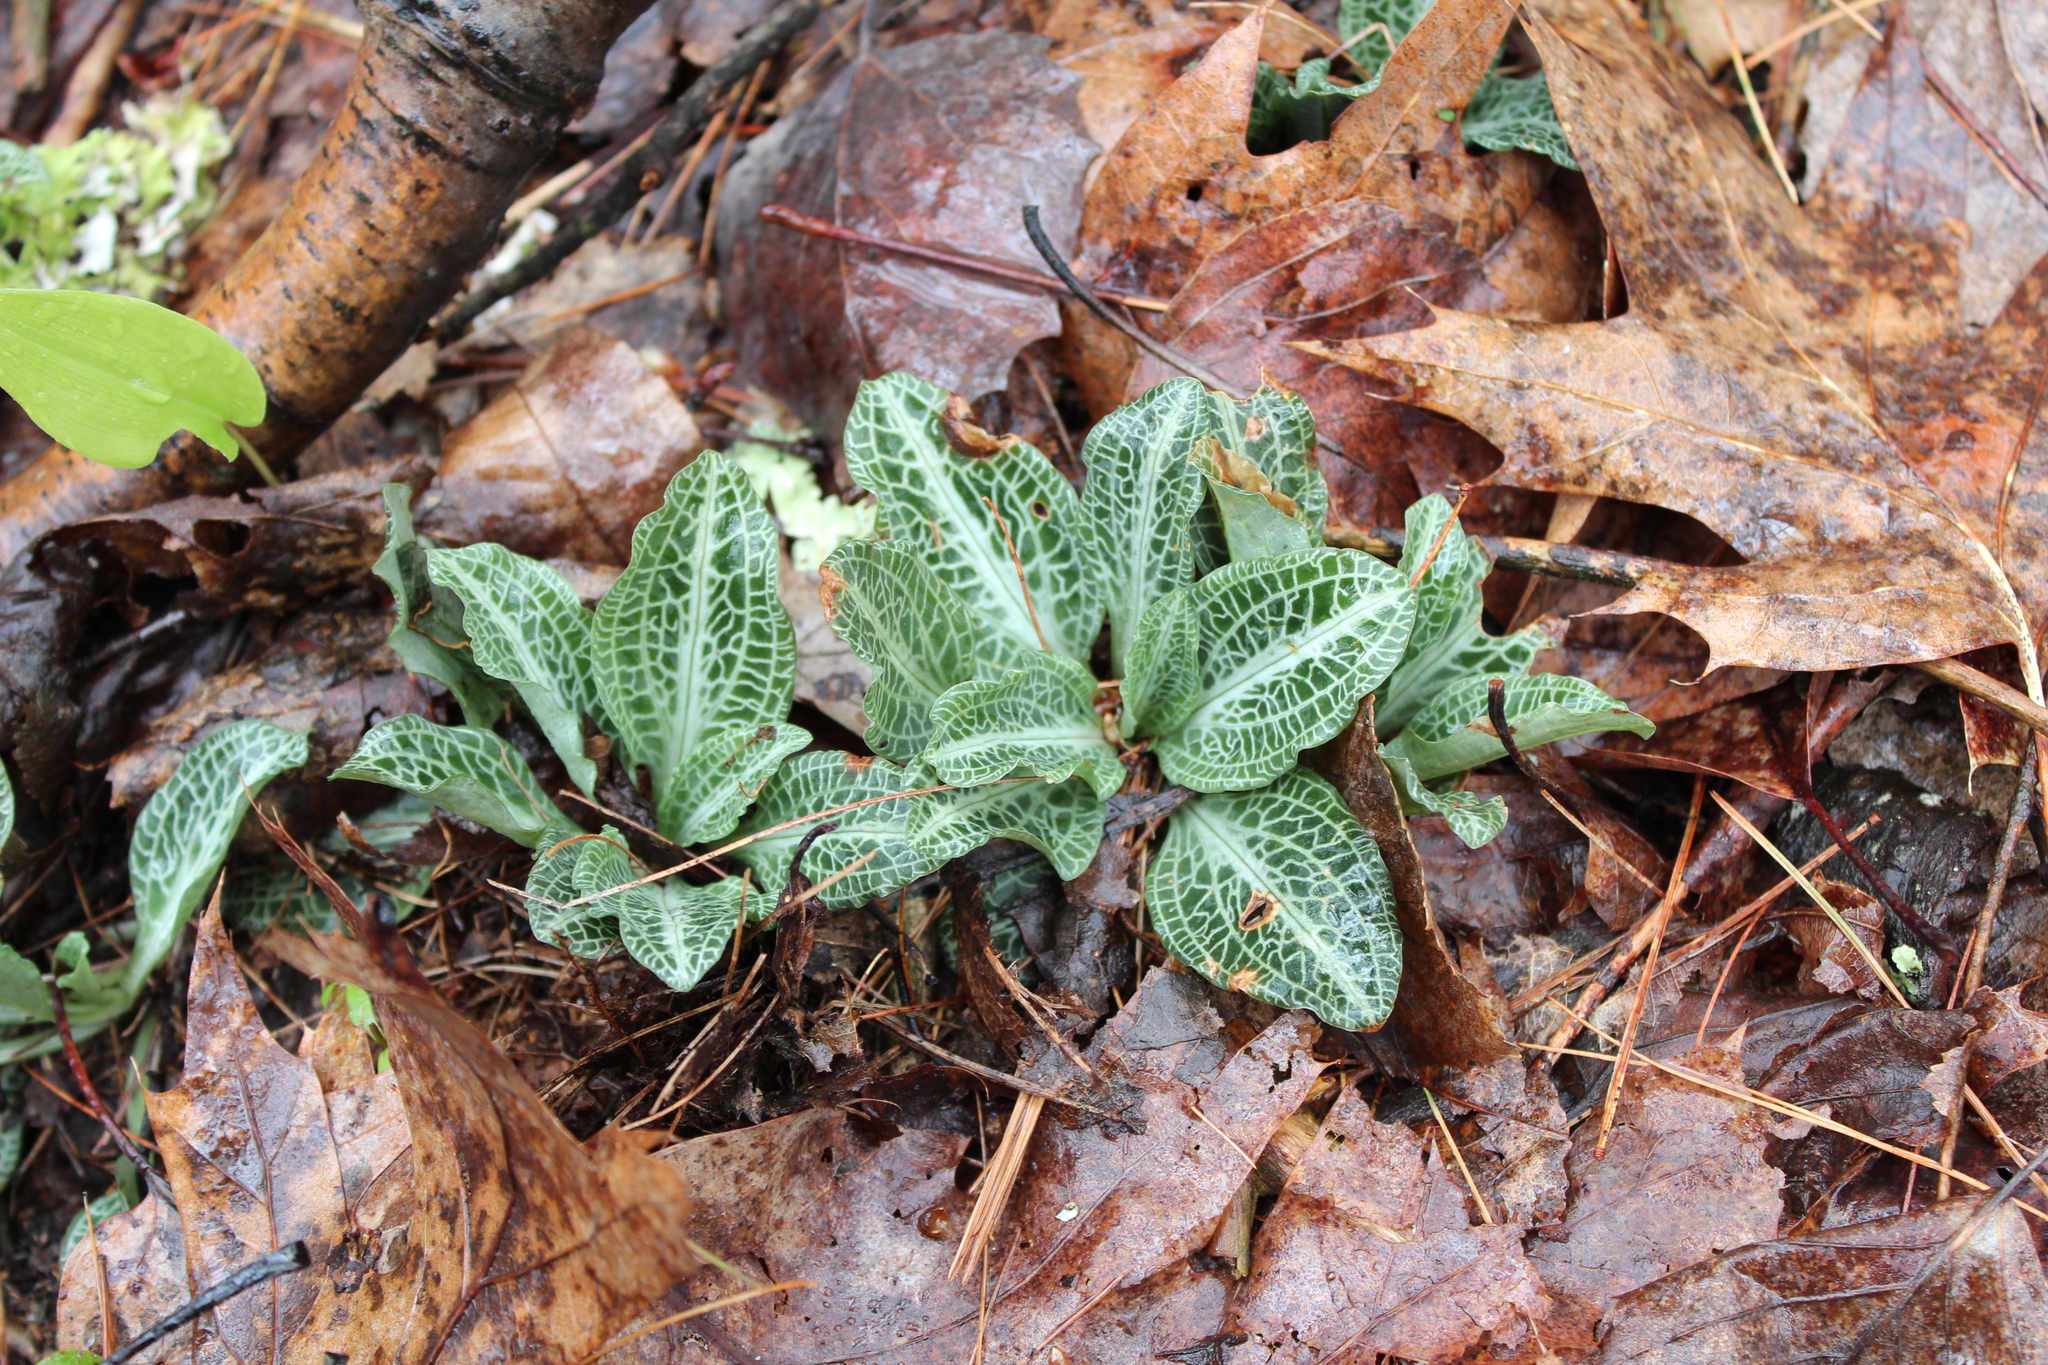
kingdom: Plantae
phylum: Tracheophyta
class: Liliopsida
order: Asparagales
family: Orchidaceae
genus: Goodyera
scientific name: Goodyera pubescens
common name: Downy rattlesnake-plantain
